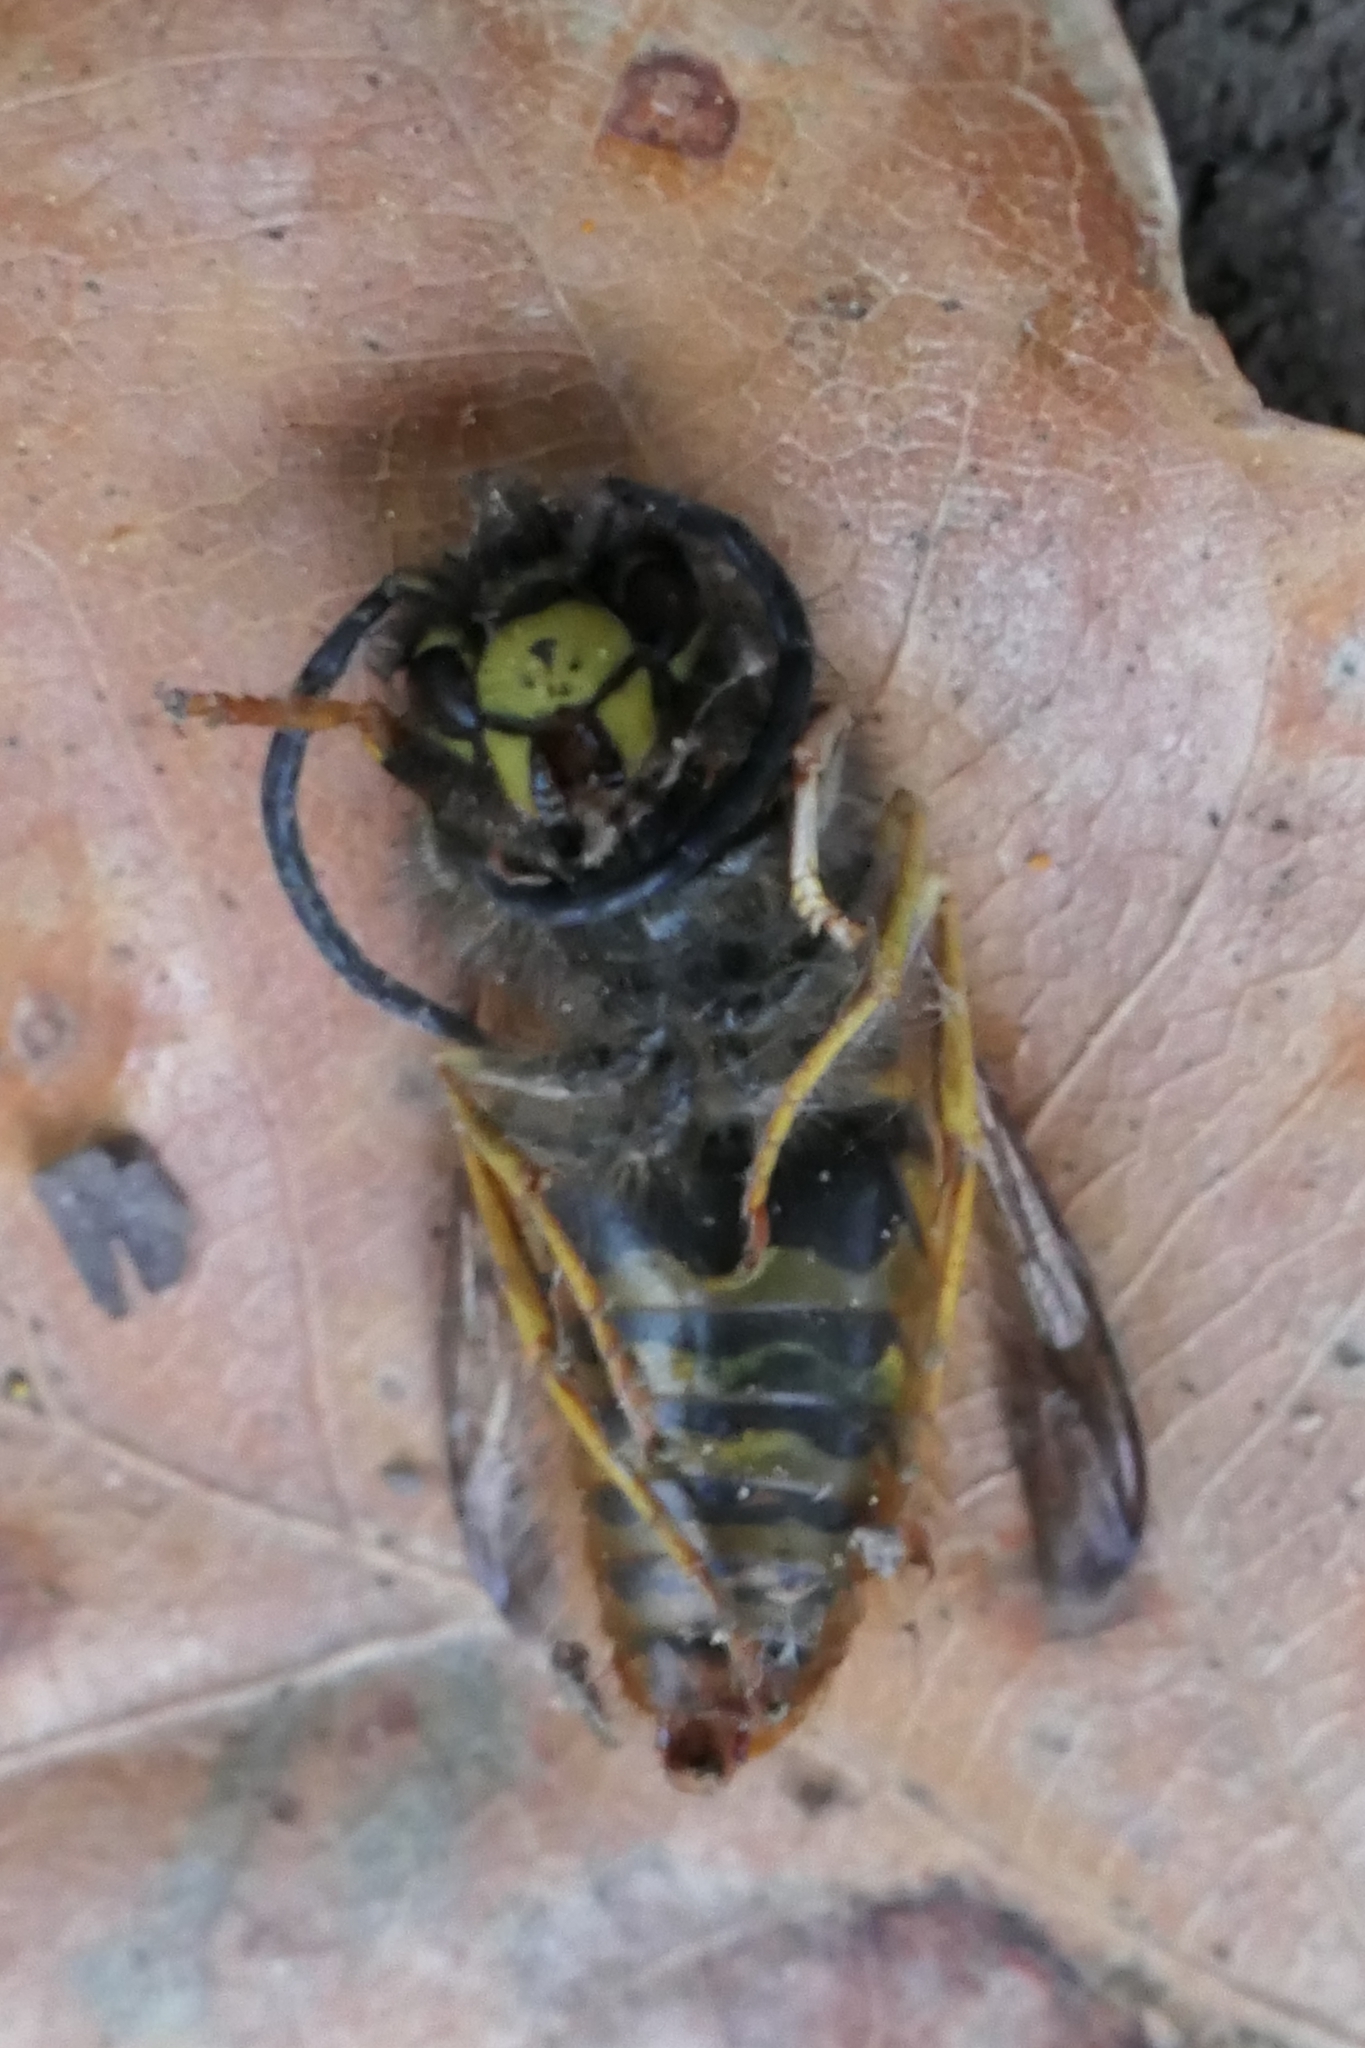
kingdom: Animalia
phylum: Arthropoda
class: Insecta
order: Hymenoptera
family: Vespidae
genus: Vespula
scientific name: Vespula vulgaris
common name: Common wasp
